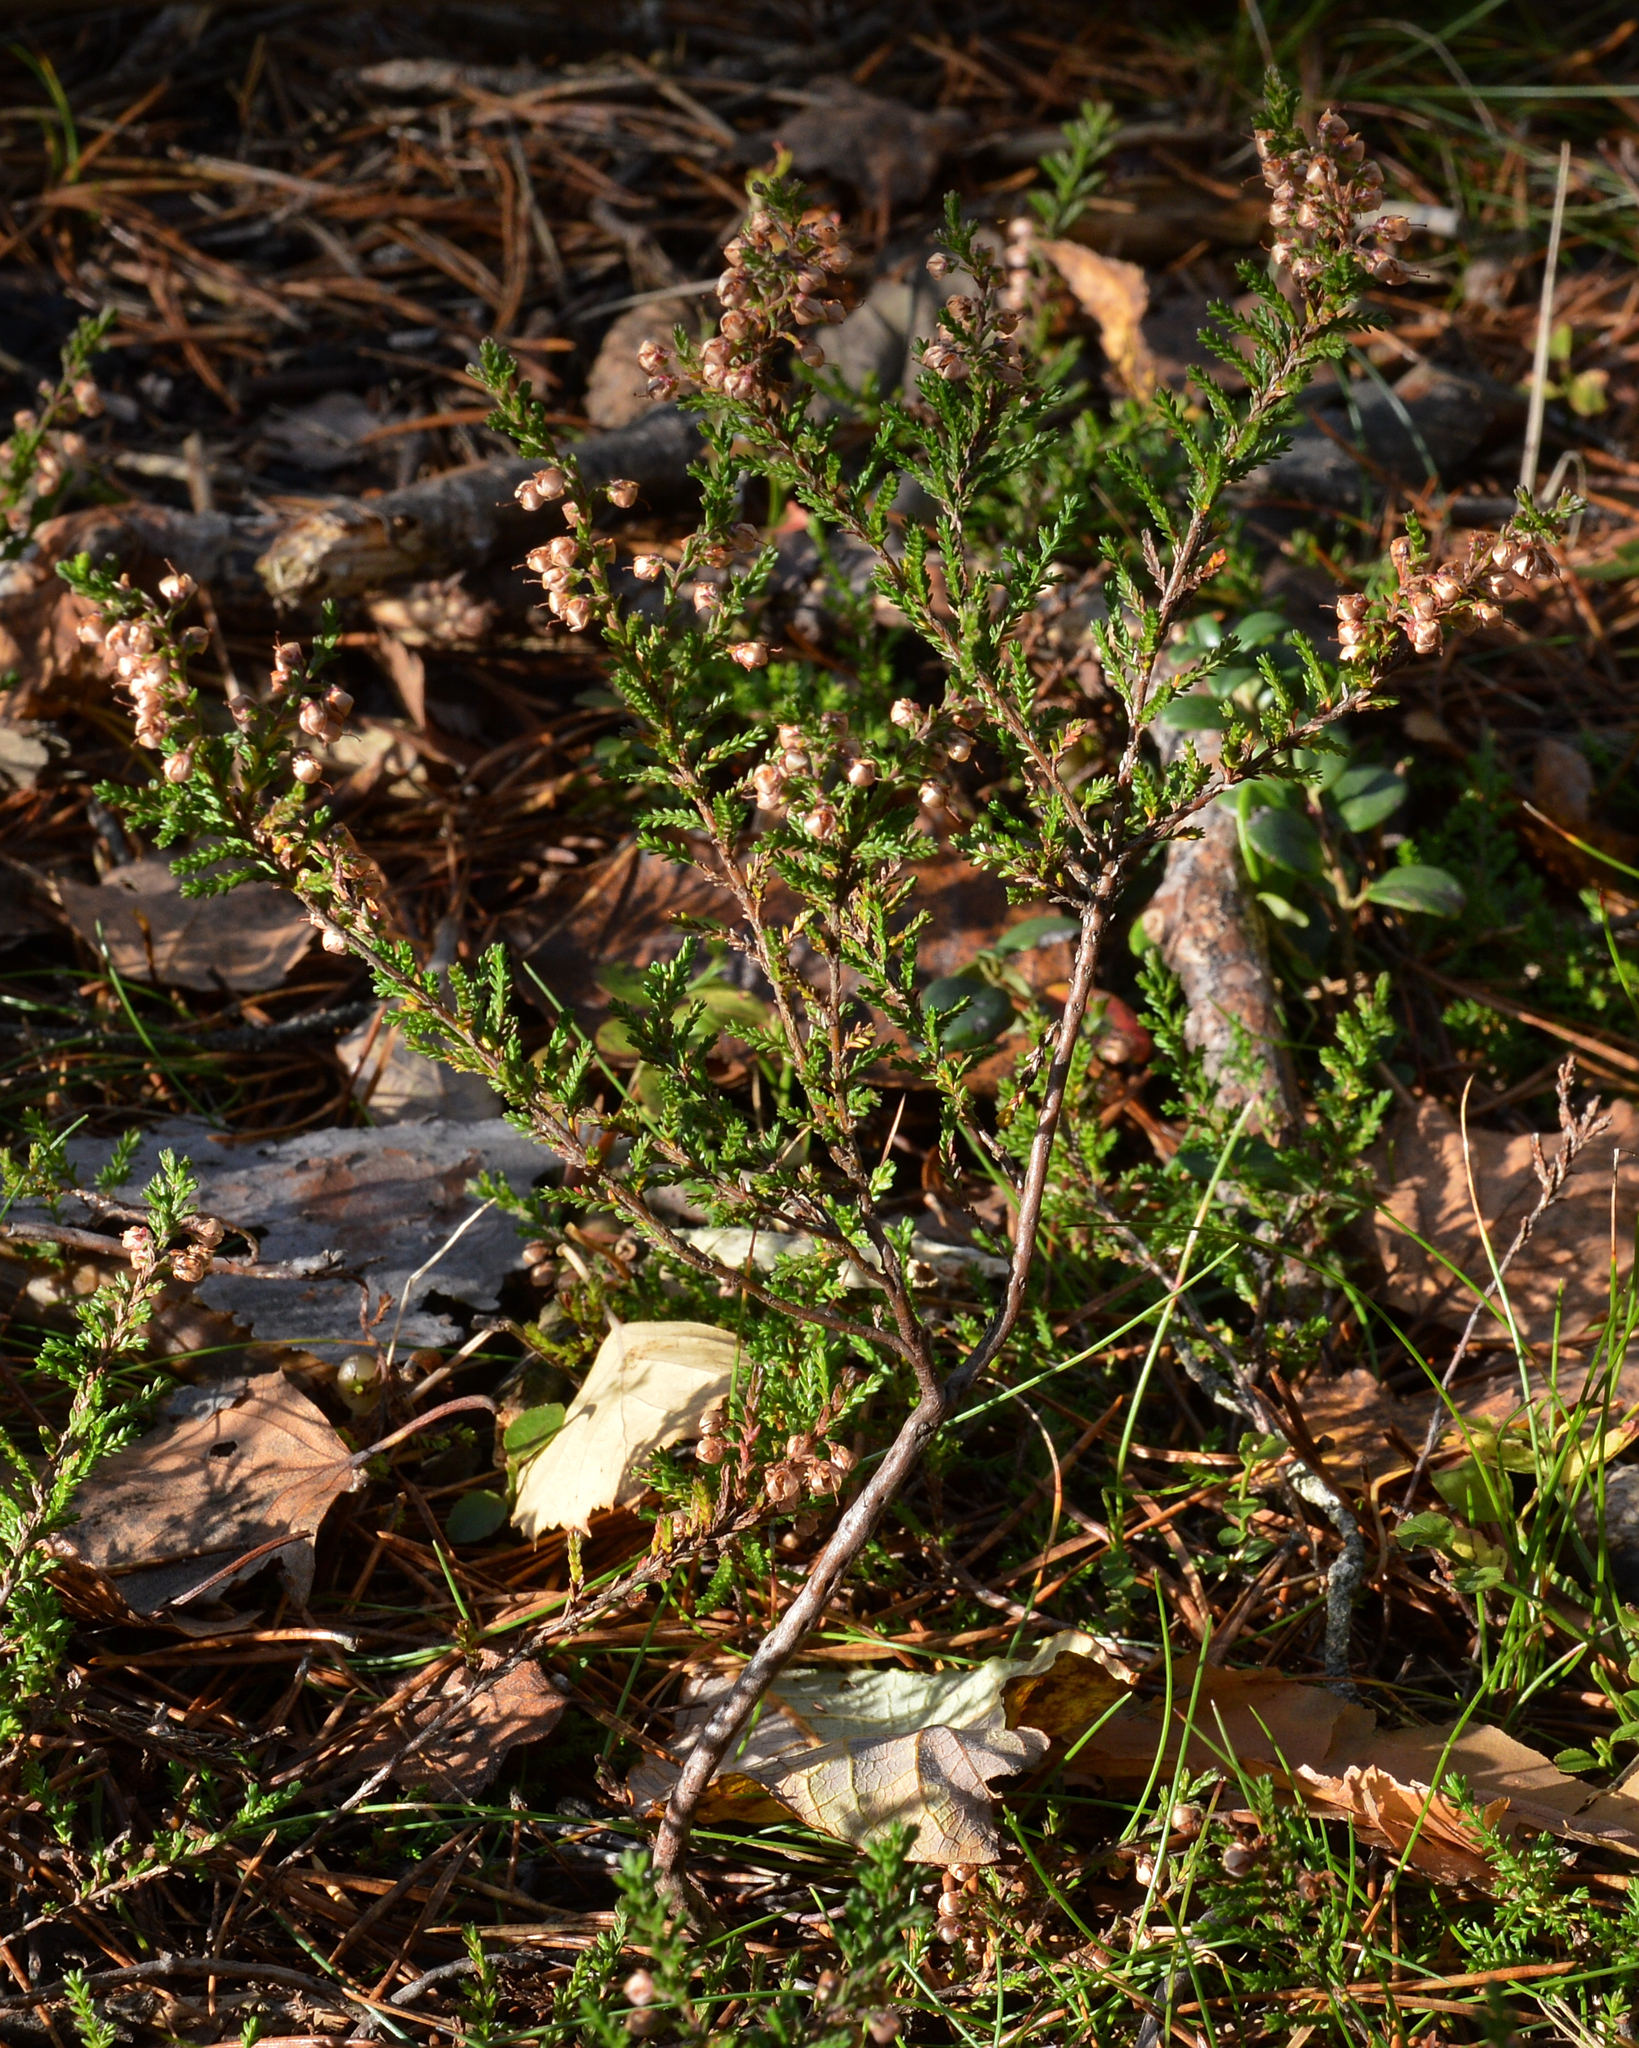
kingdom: Plantae
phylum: Tracheophyta
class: Magnoliopsida
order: Ericales
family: Ericaceae
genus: Calluna
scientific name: Calluna vulgaris
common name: Heather
